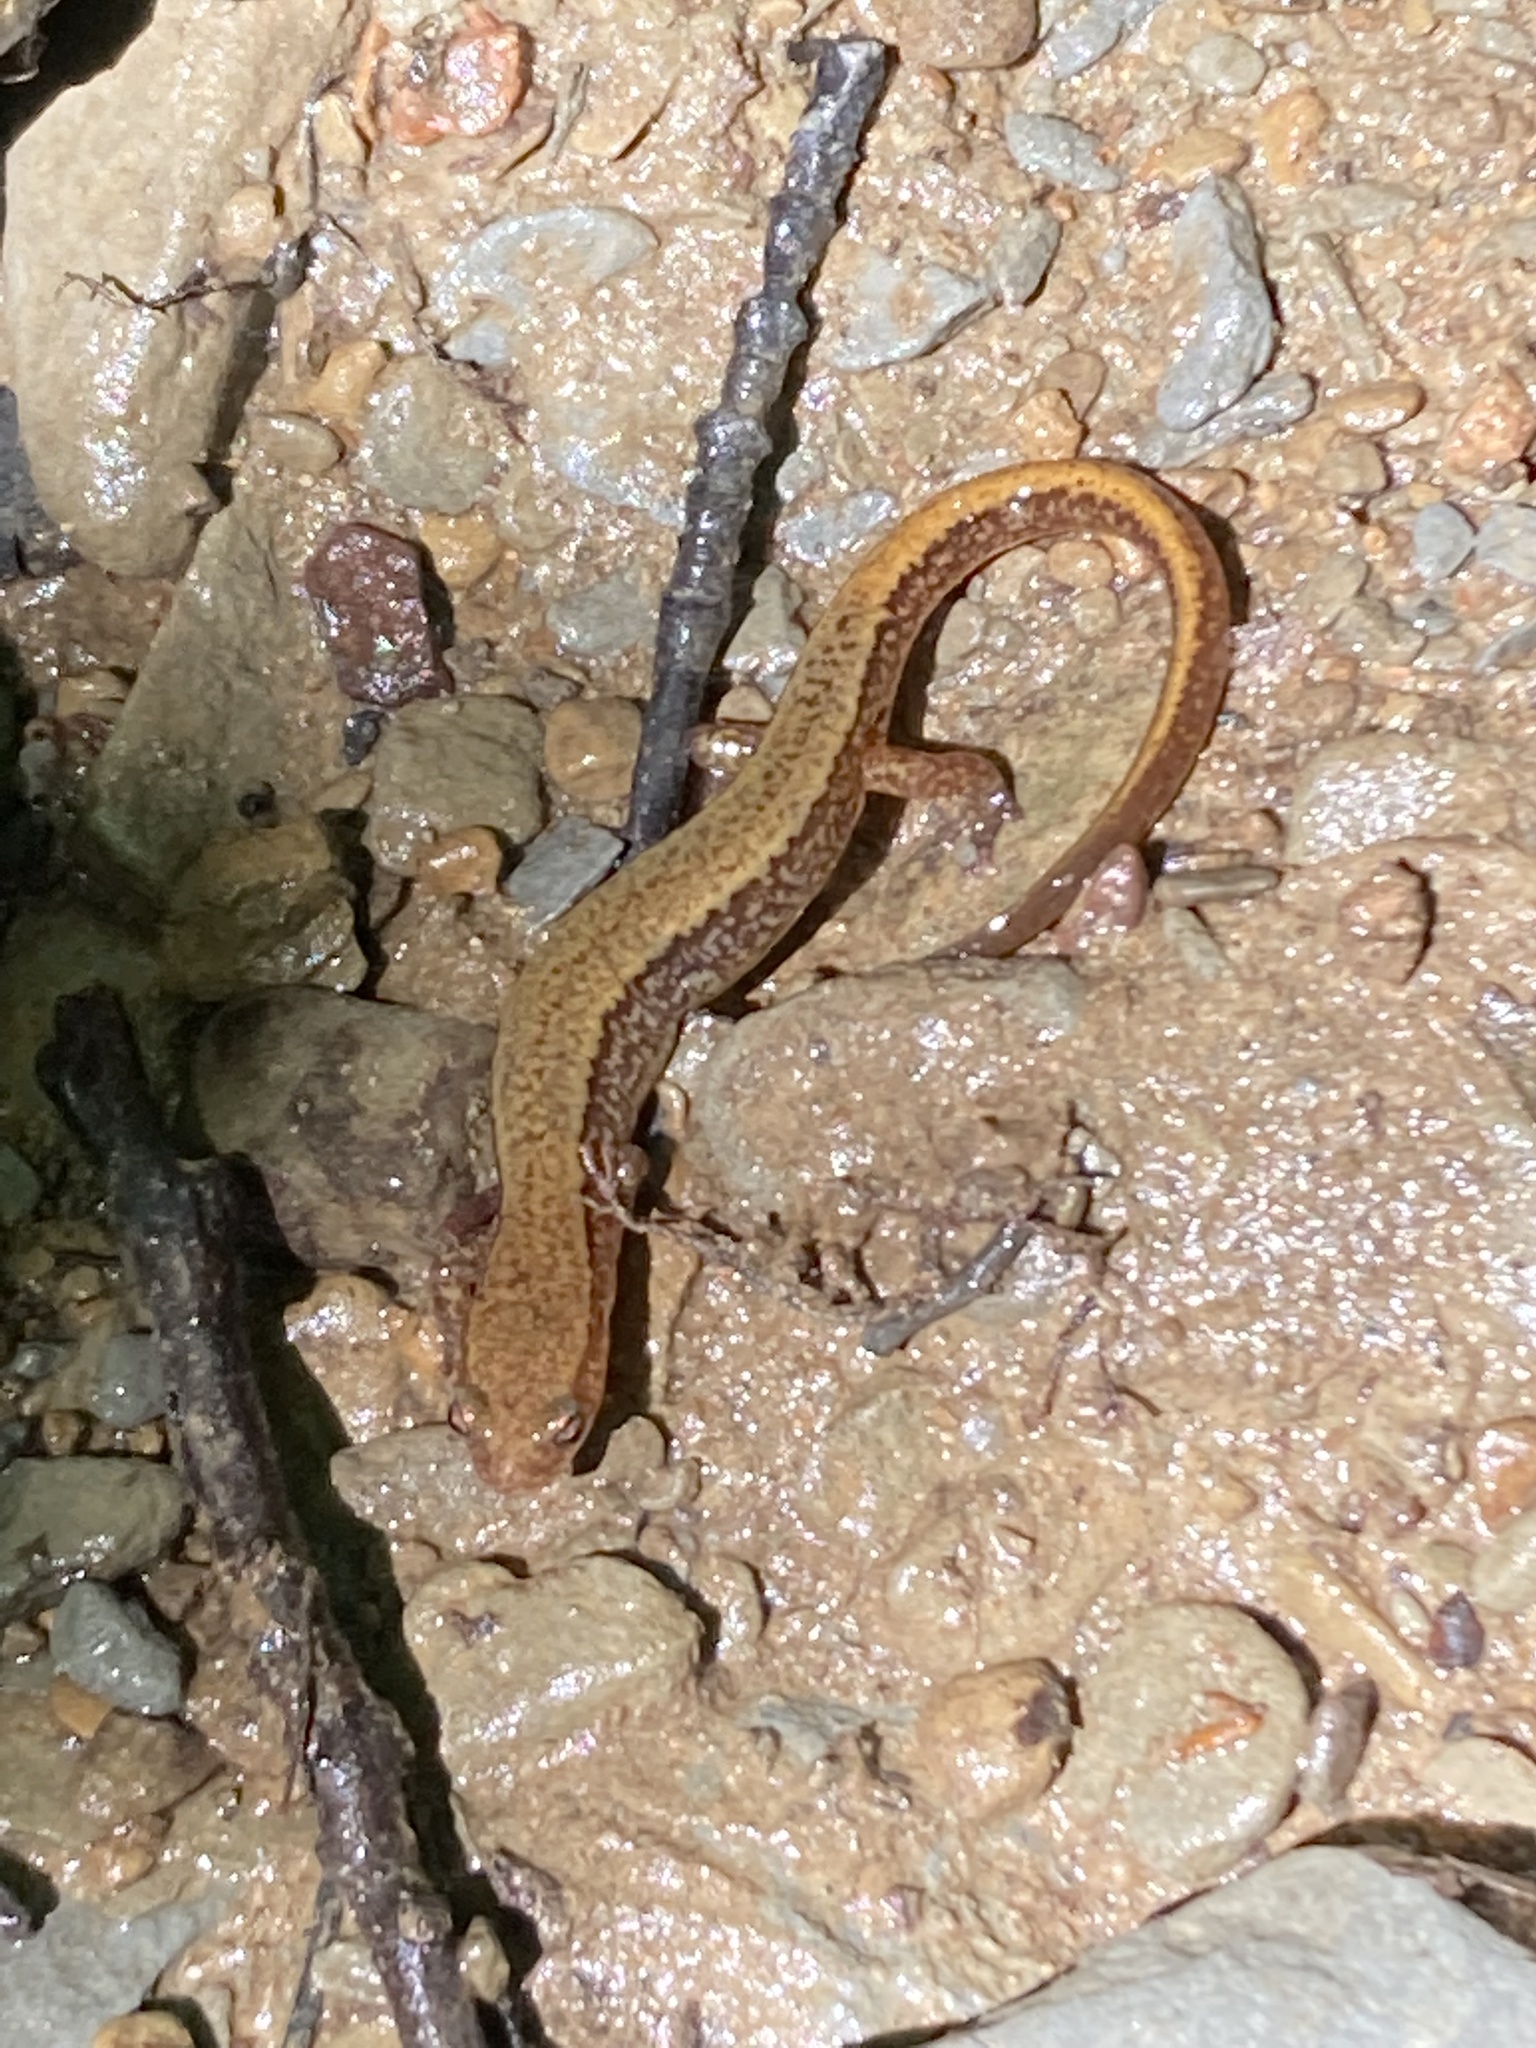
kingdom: Animalia
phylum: Chordata
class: Amphibia
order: Caudata
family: Plethodontidae
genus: Eurycea
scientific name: Eurycea cirrigera
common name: Southern two-lined salamander
